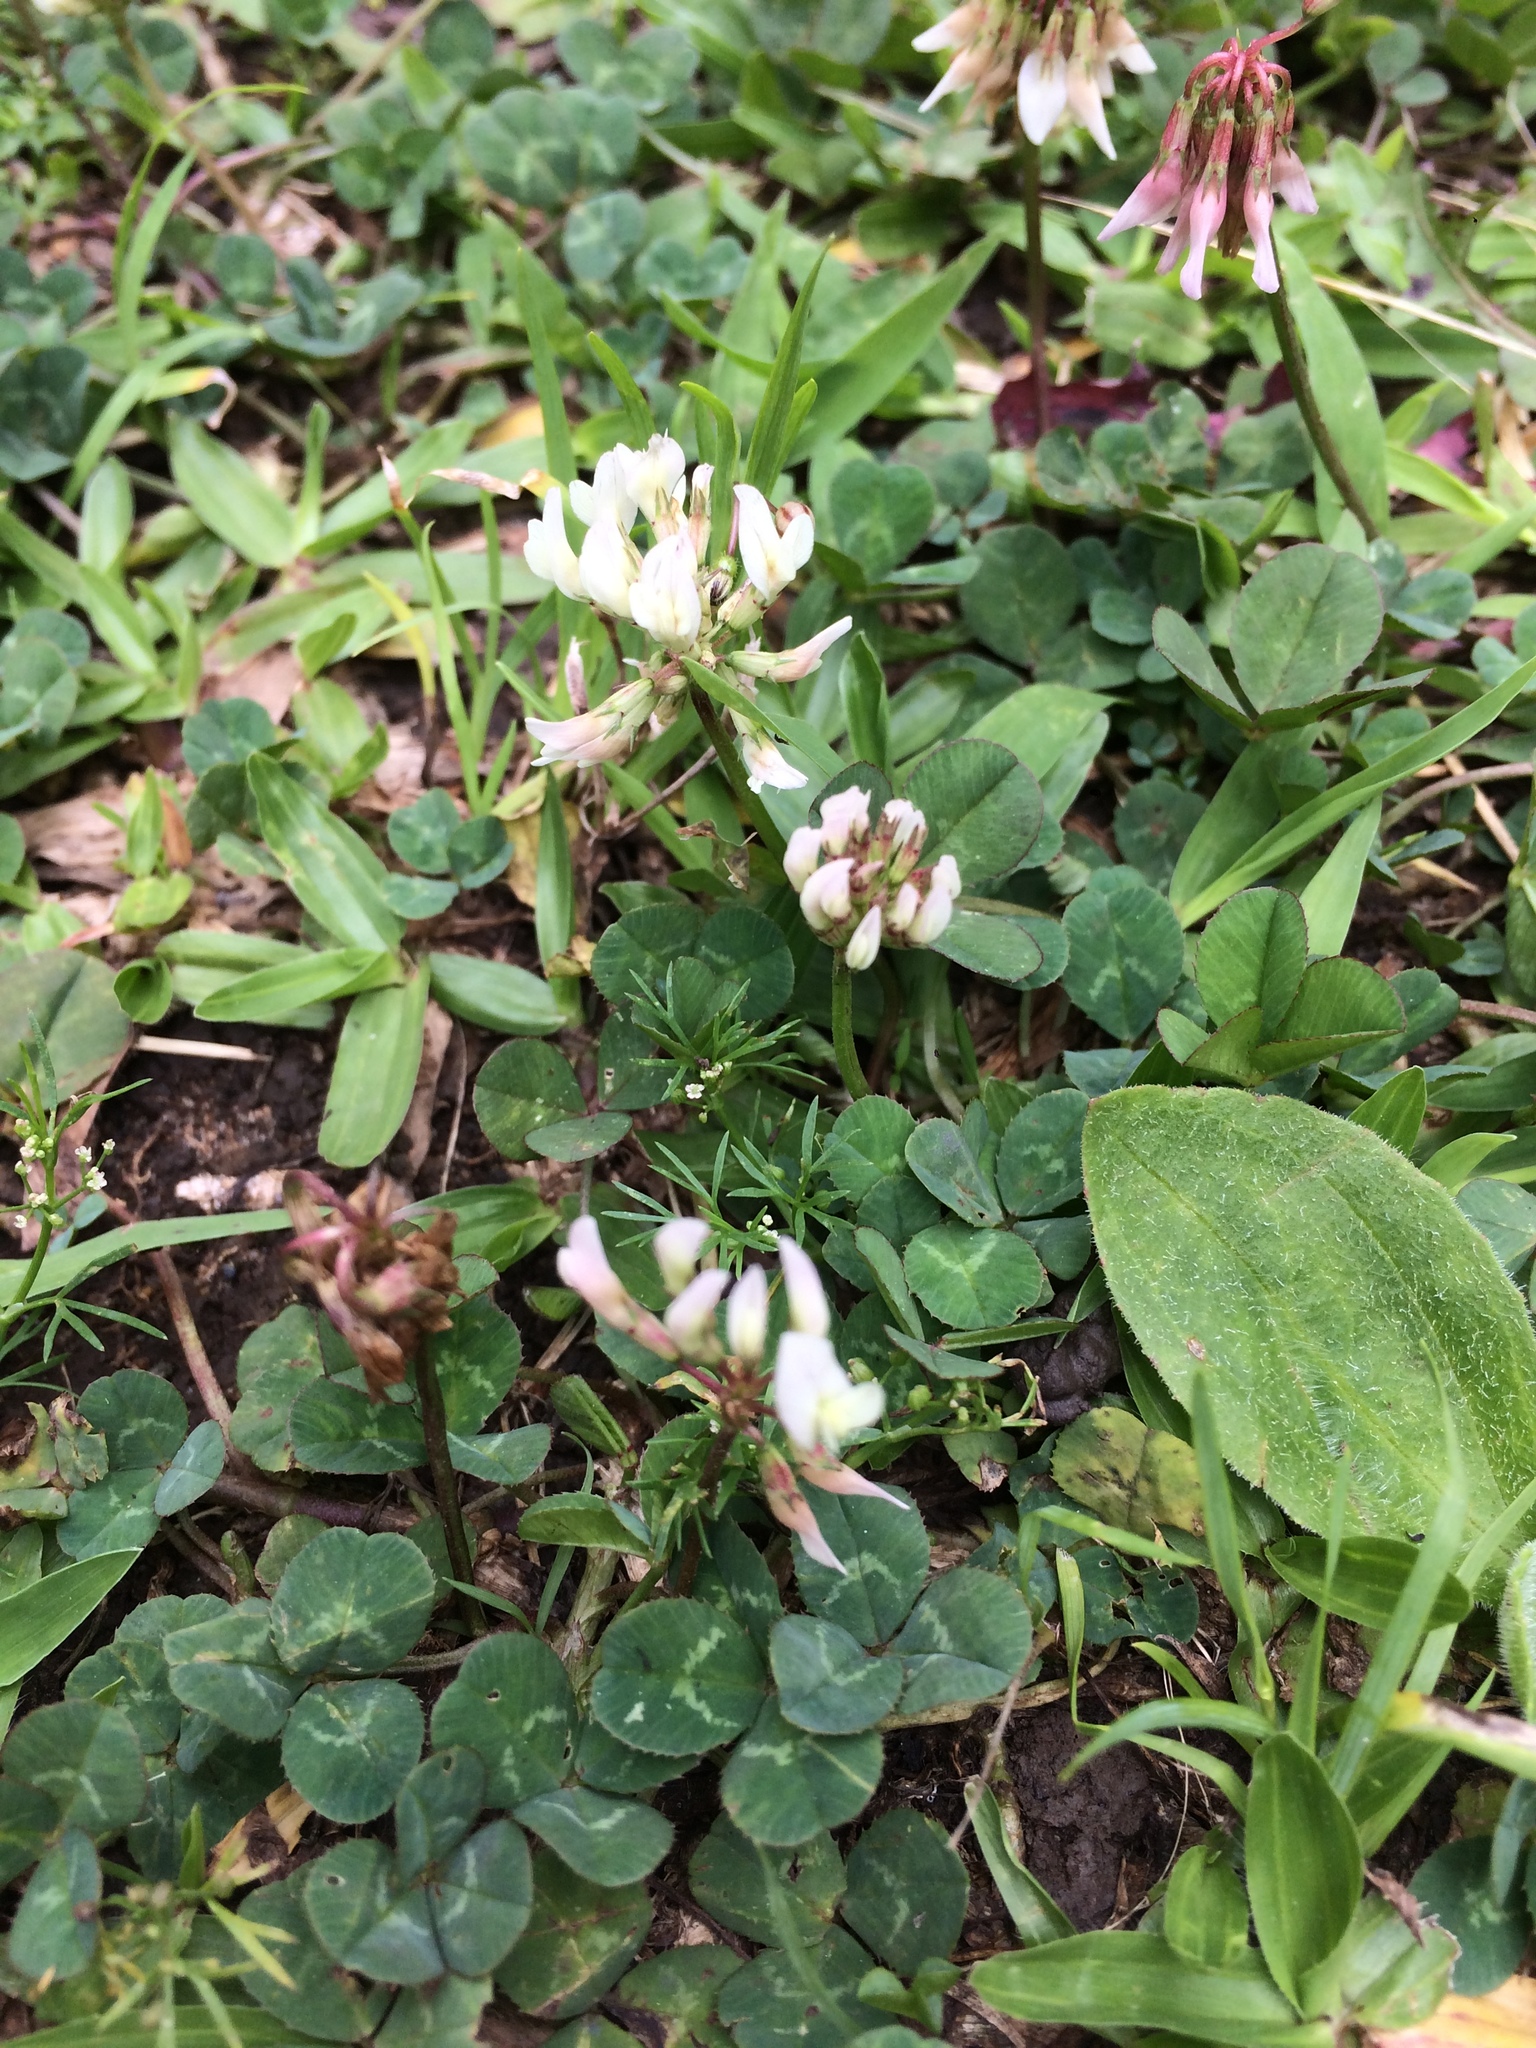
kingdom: Plantae
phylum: Tracheophyta
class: Magnoliopsida
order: Fabales
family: Fabaceae
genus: Trifolium
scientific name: Trifolium repens
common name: White clover
